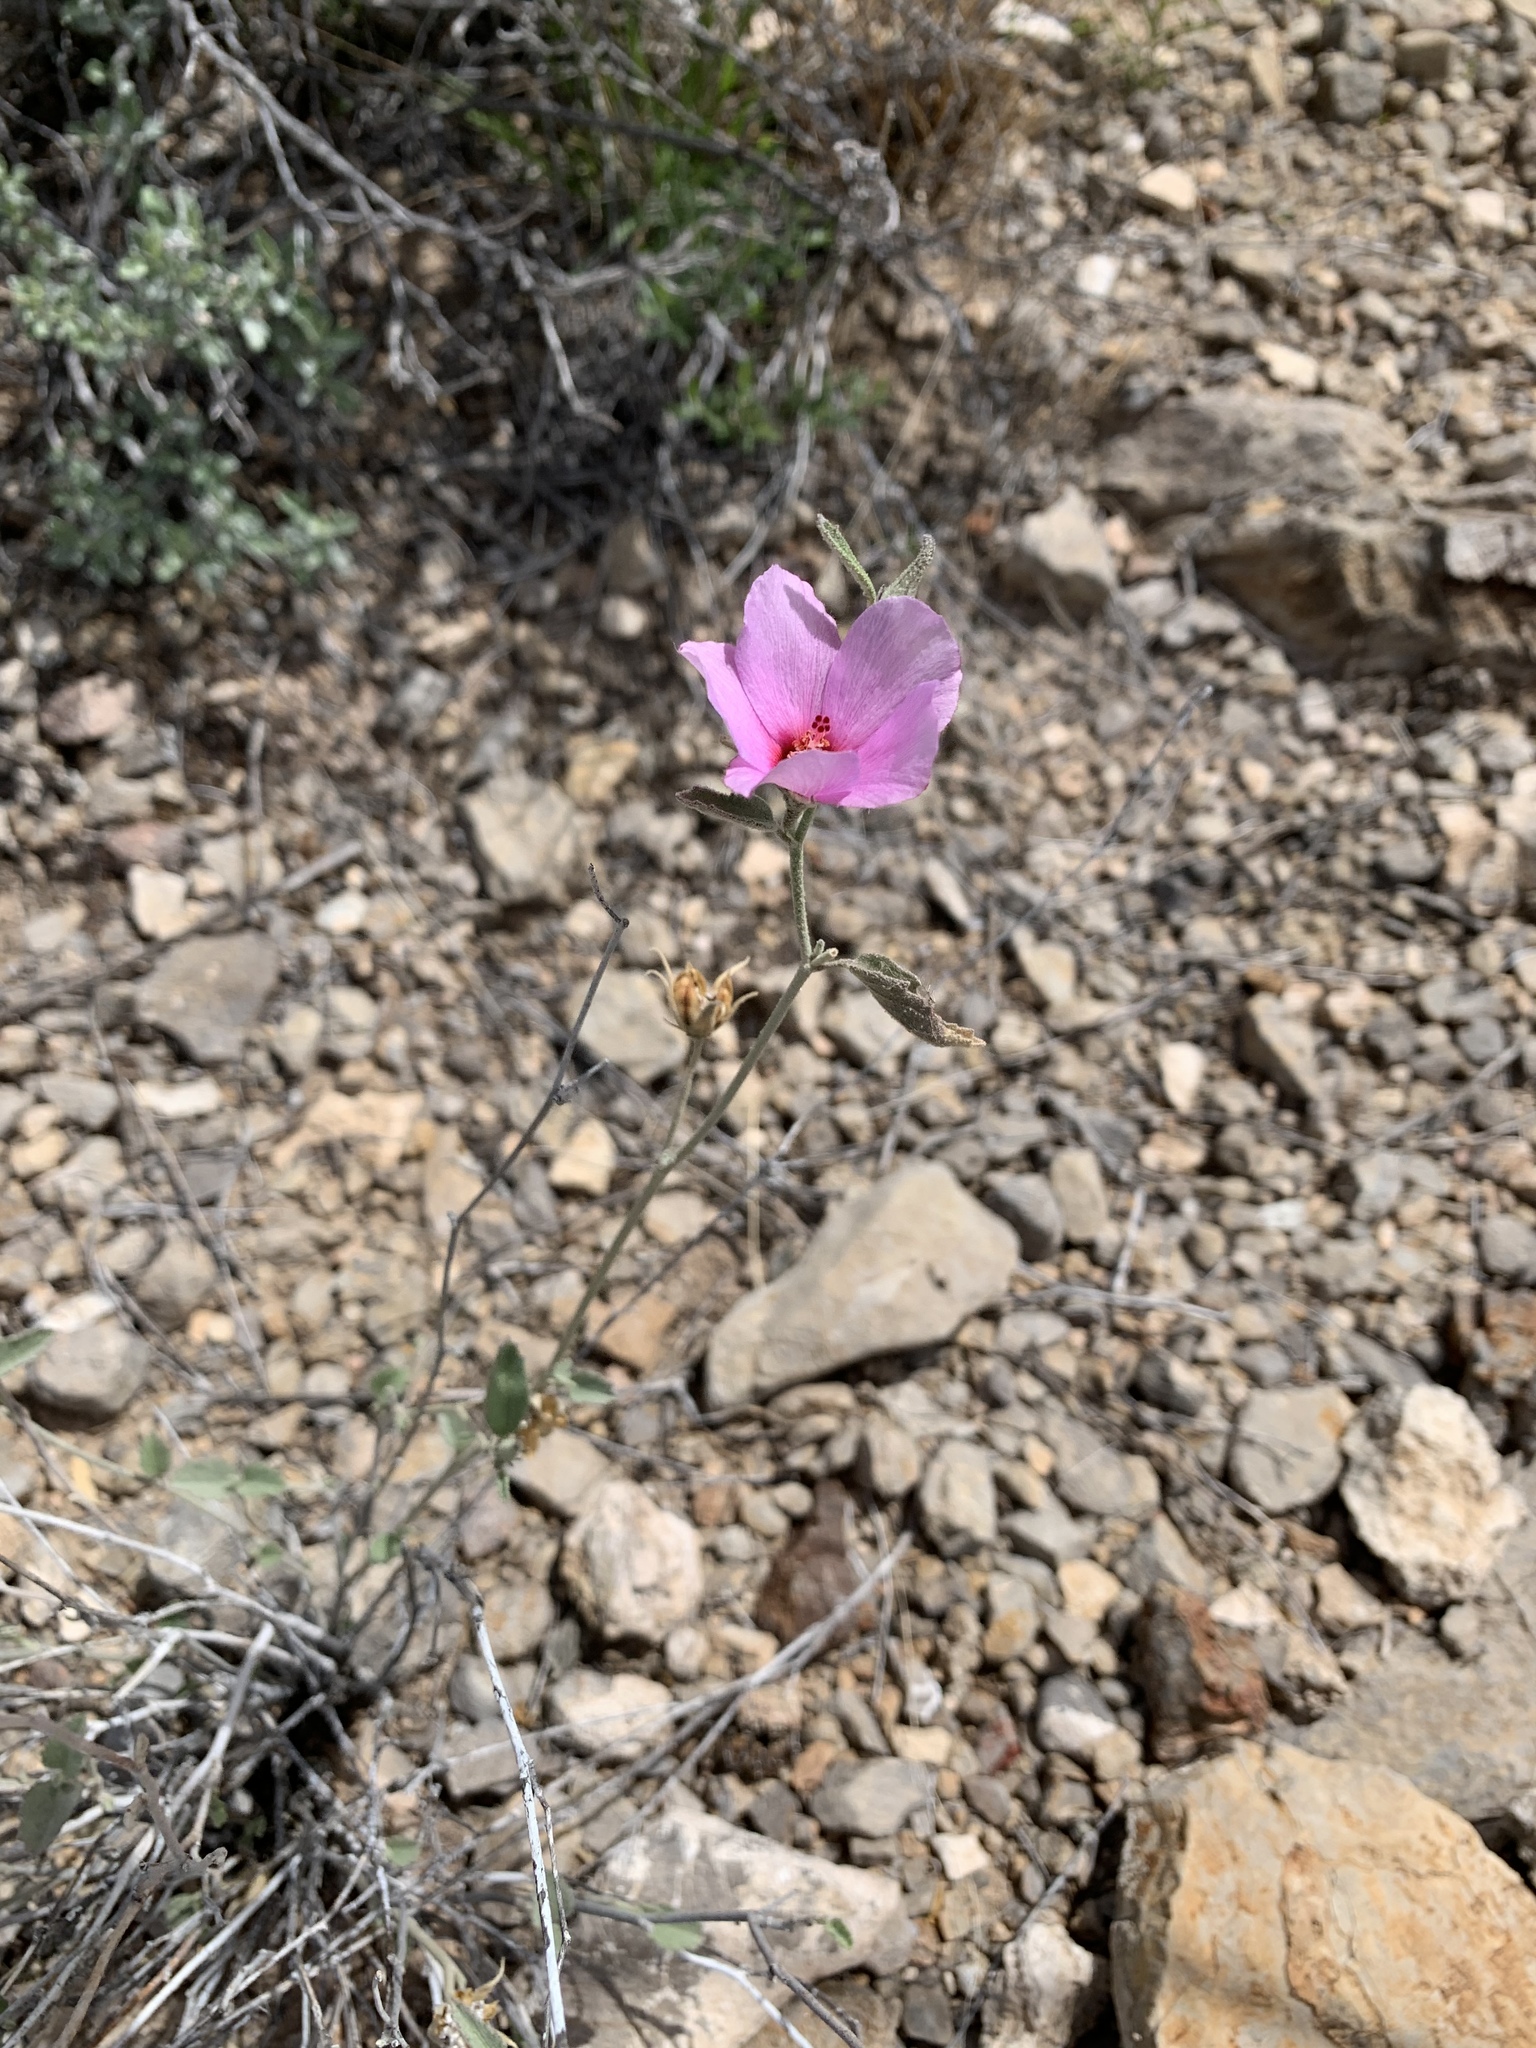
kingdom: Plantae
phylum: Tracheophyta
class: Magnoliopsida
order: Malvales
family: Malvaceae
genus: Hibiscus
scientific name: Hibiscus denudatus
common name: Paleface
